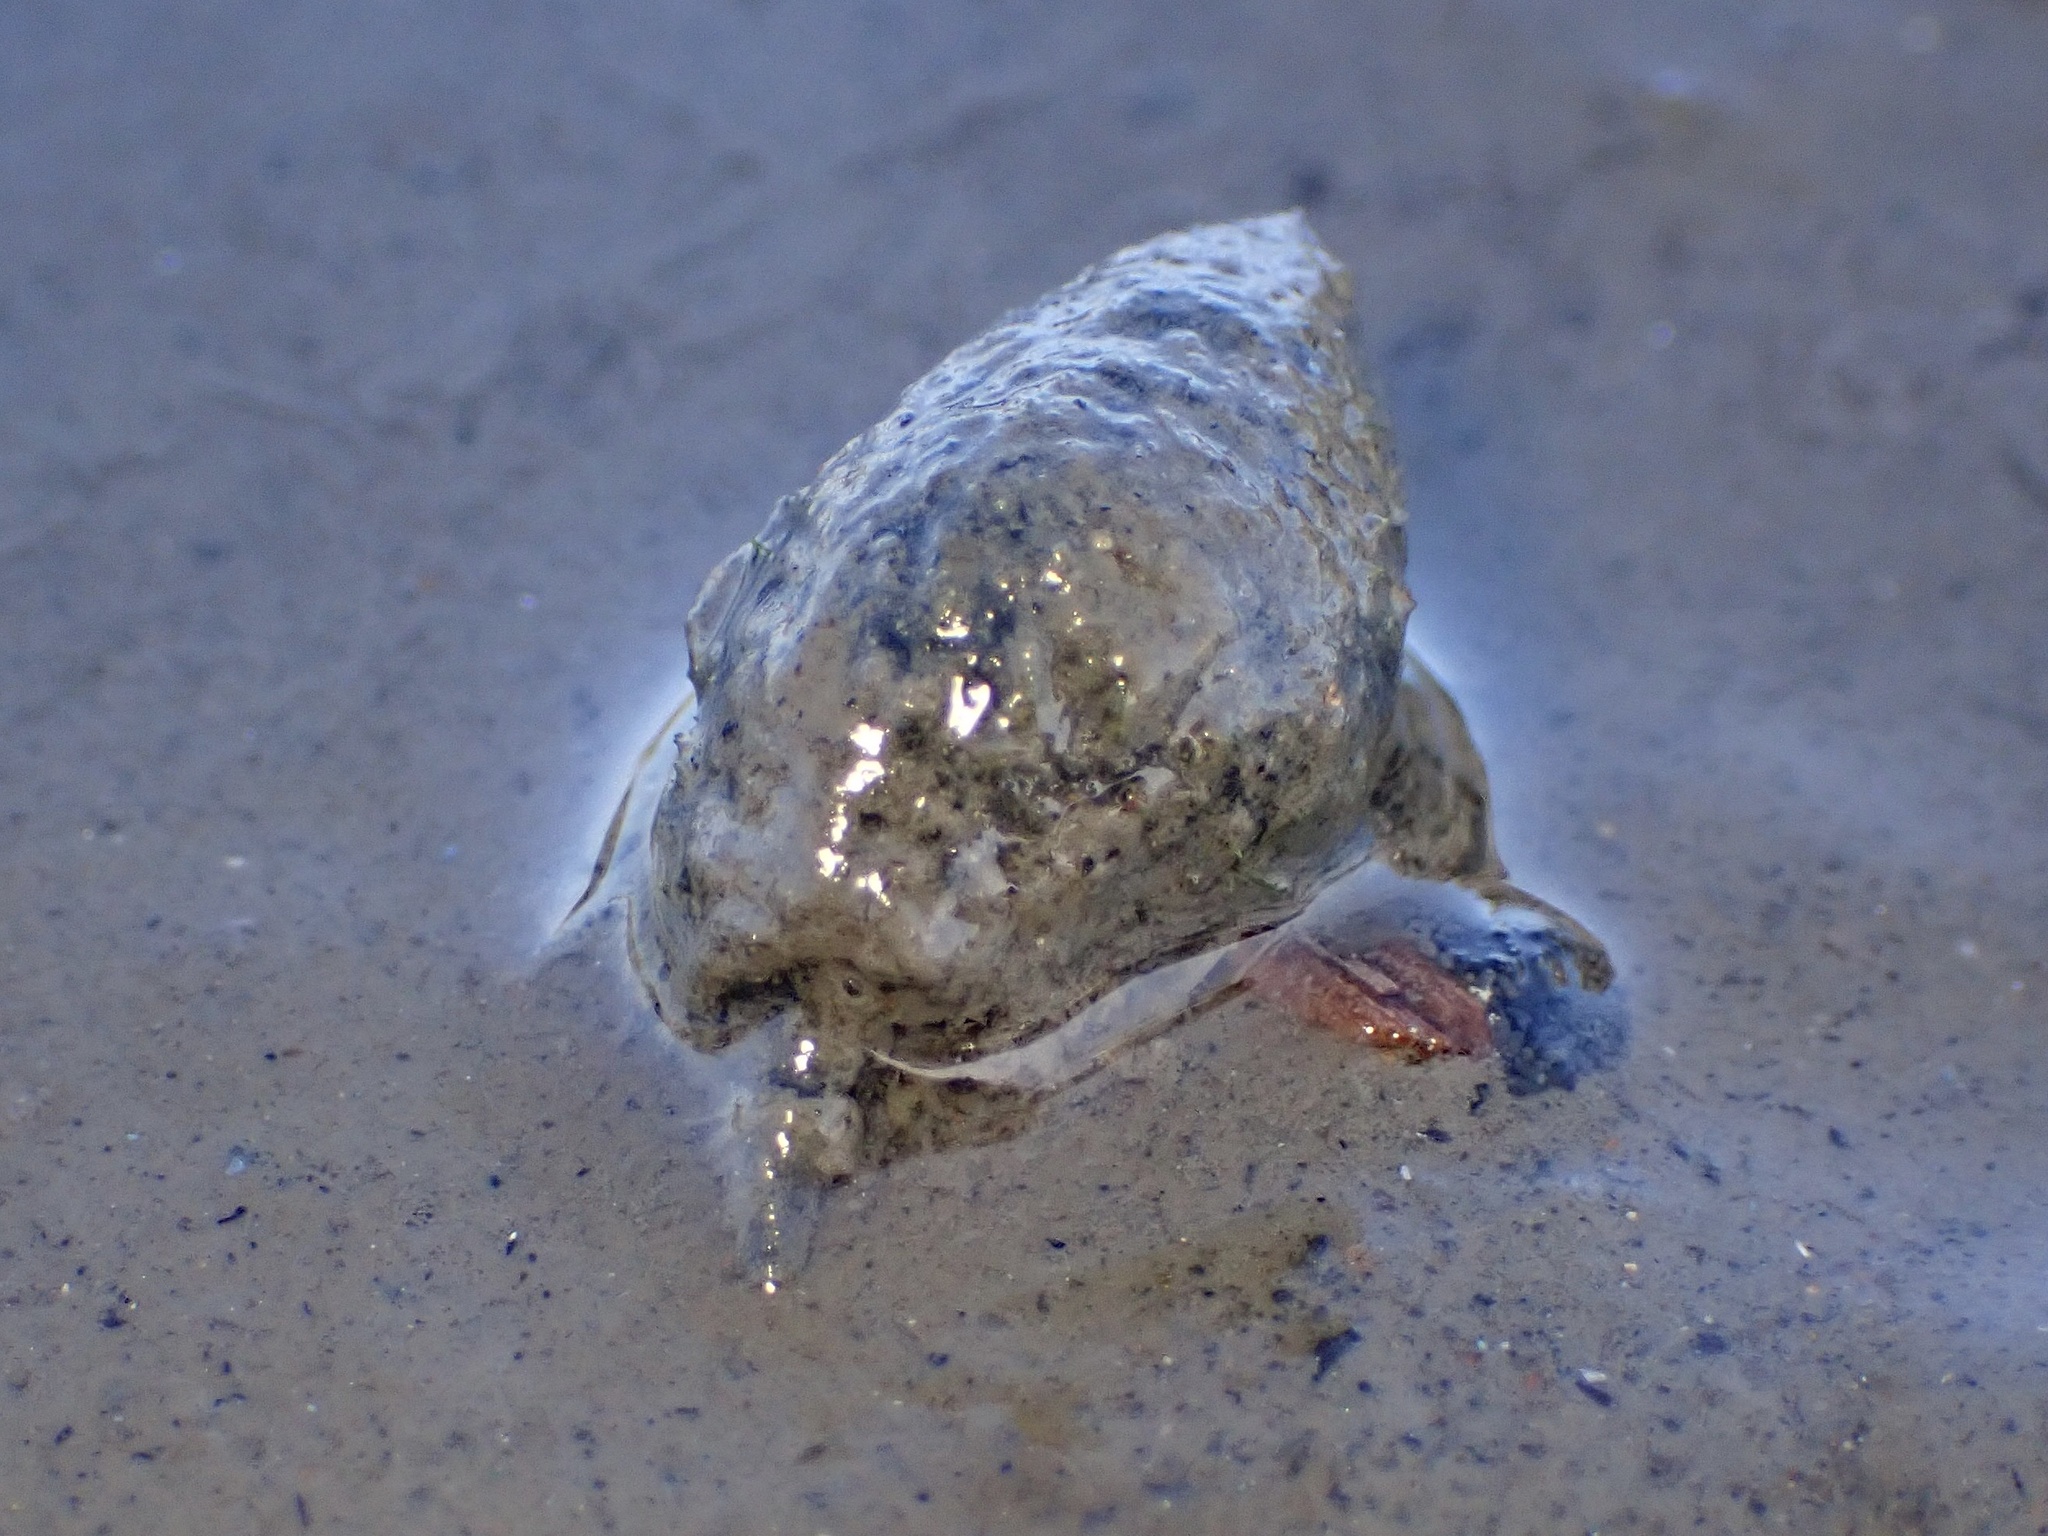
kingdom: Animalia
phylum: Mollusca
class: Gastropoda
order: Neogastropoda
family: Nassariidae
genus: Ilyanassa
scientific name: Ilyanassa obsoleta
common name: Eastern mudsnail
